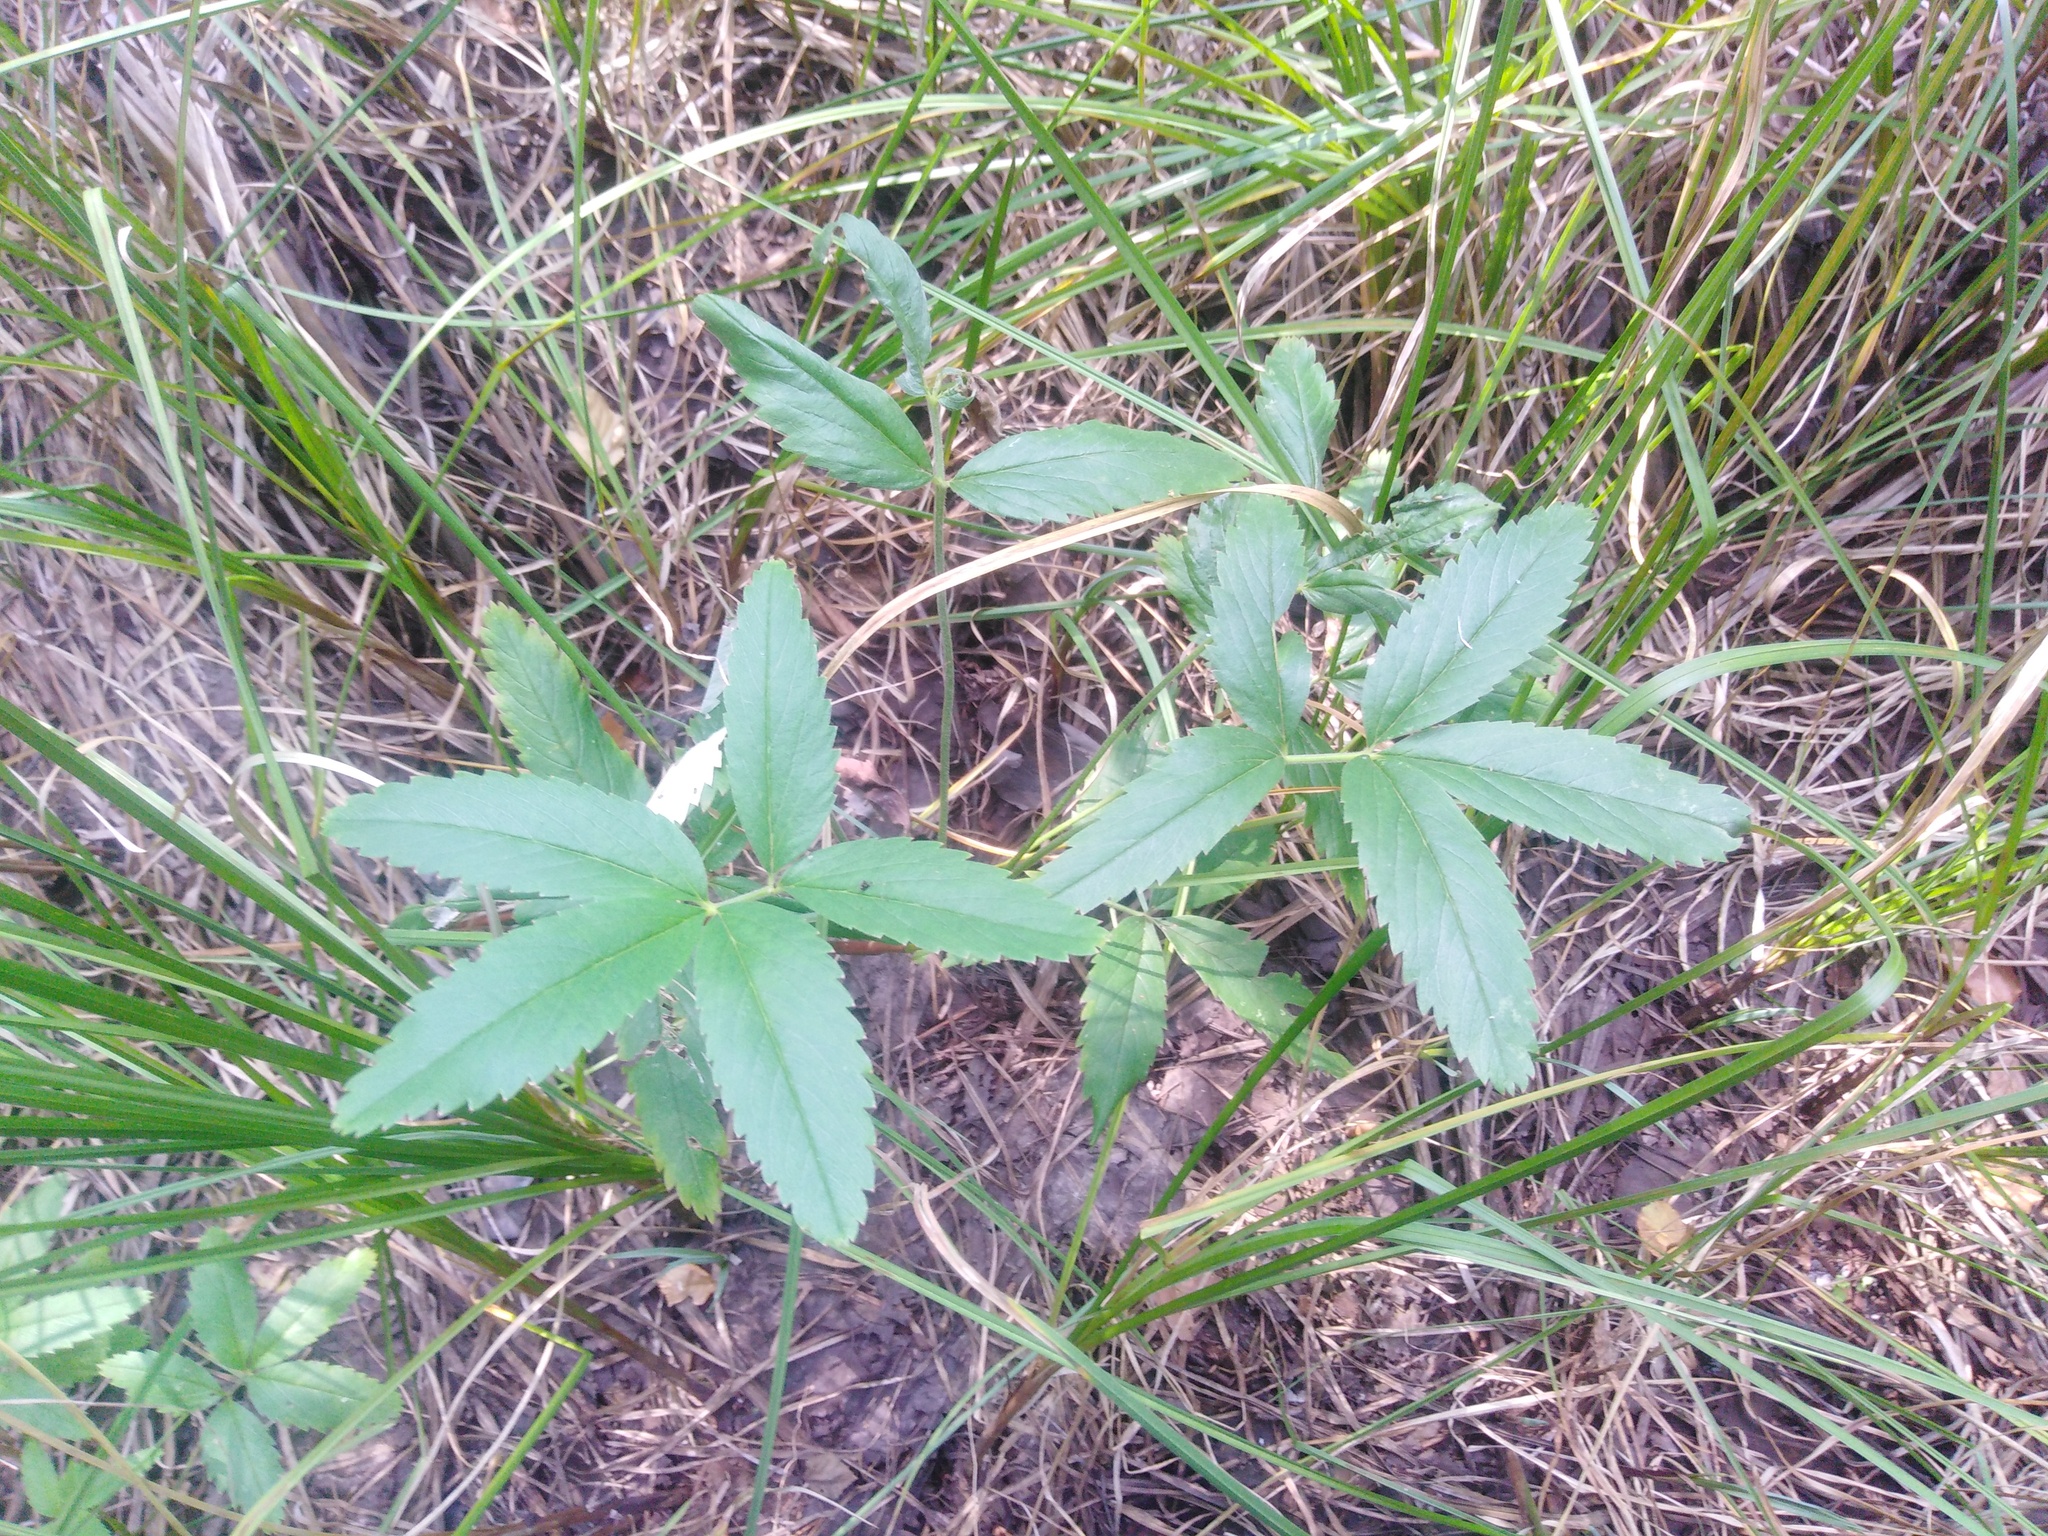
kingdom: Plantae
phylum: Tracheophyta
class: Magnoliopsida
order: Rosales
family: Rosaceae
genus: Comarum
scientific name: Comarum palustre
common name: Marsh cinquefoil
